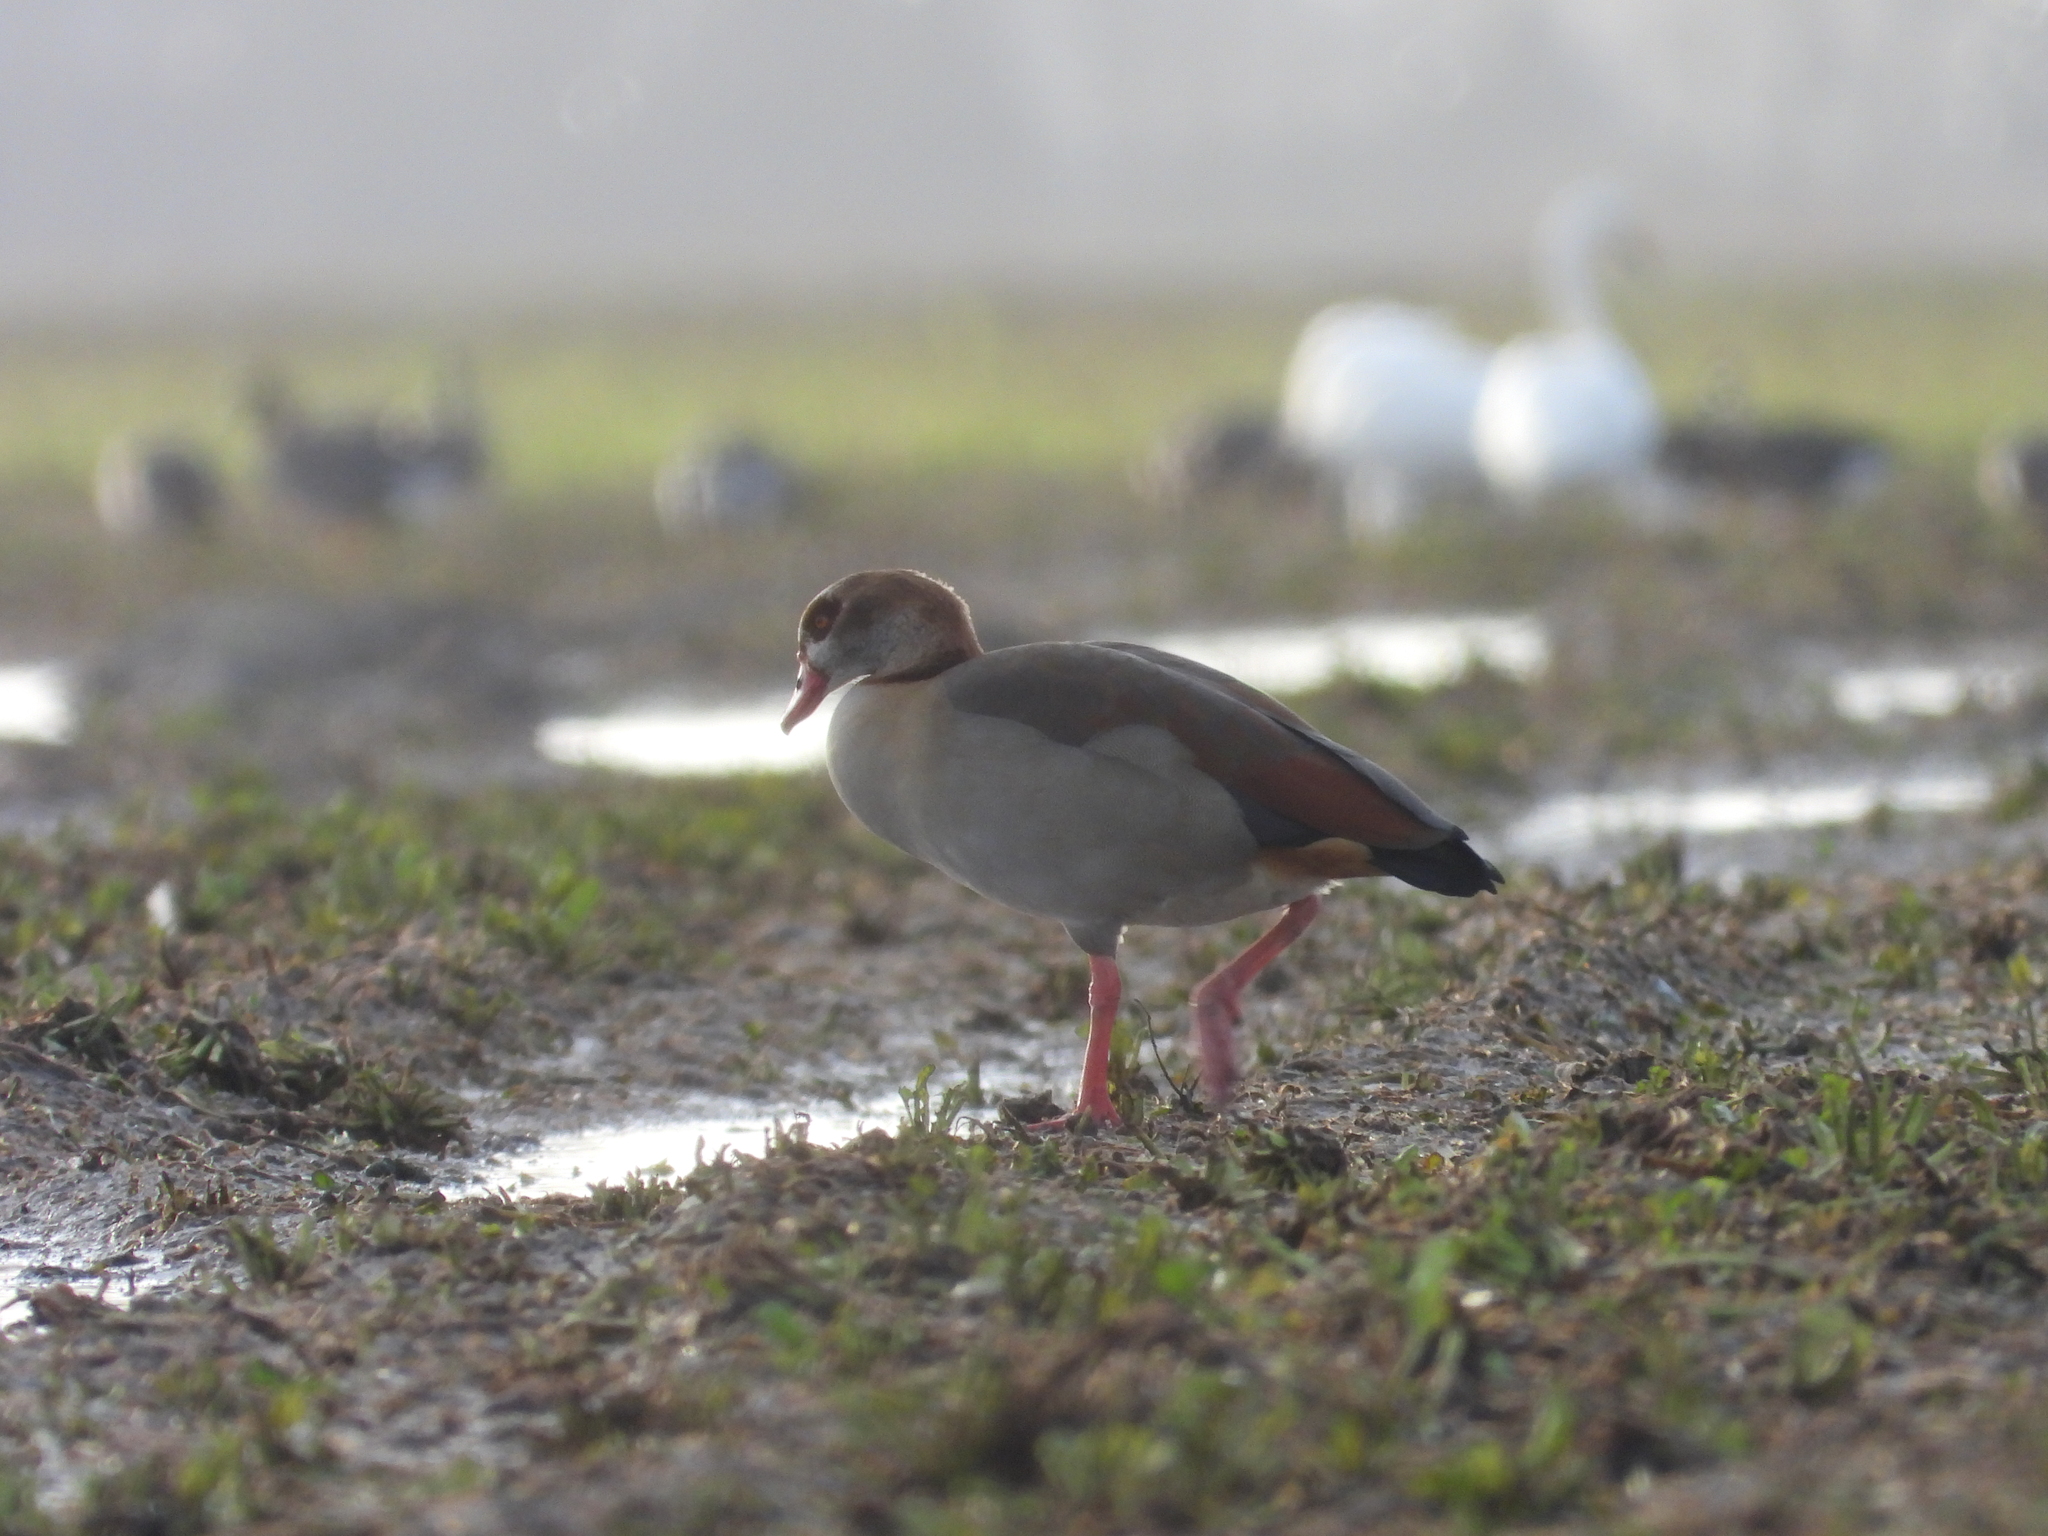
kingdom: Animalia
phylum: Chordata
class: Aves
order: Anseriformes
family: Anatidae
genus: Alopochen
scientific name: Alopochen aegyptiaca
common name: Egyptian goose
